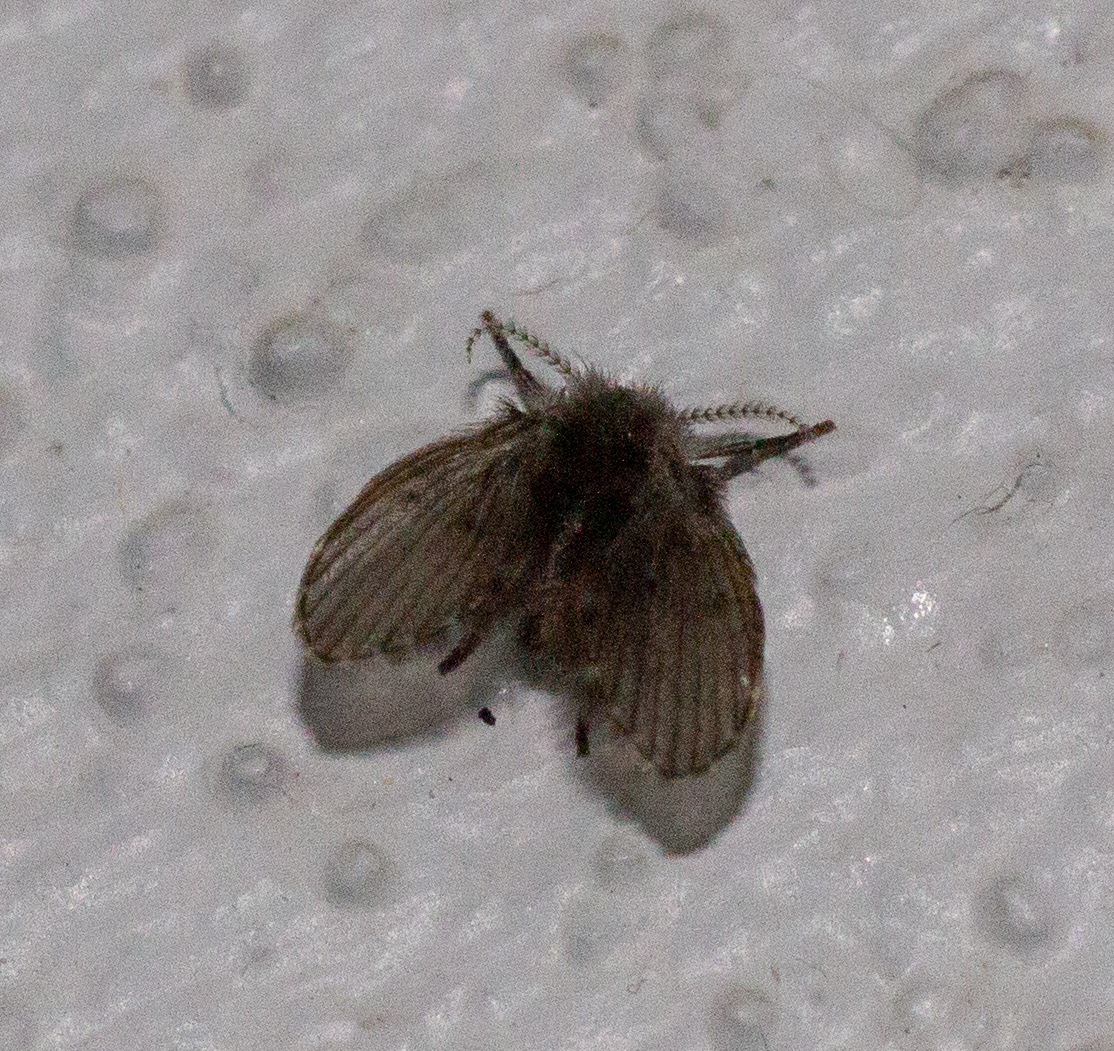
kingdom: Animalia
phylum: Arthropoda
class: Insecta
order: Diptera
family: Psychodidae
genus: Clogmia
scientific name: Clogmia albipunctatus
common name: White-spotted moth fly
